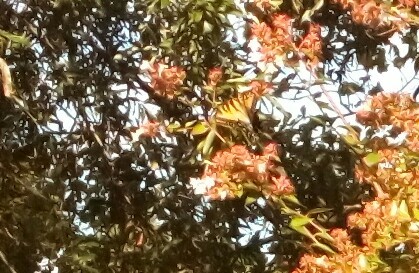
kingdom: Animalia
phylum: Arthropoda
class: Insecta
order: Lepidoptera
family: Papilionidae
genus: Papilio
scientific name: Papilio glaucus
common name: Tiger swallowtail
